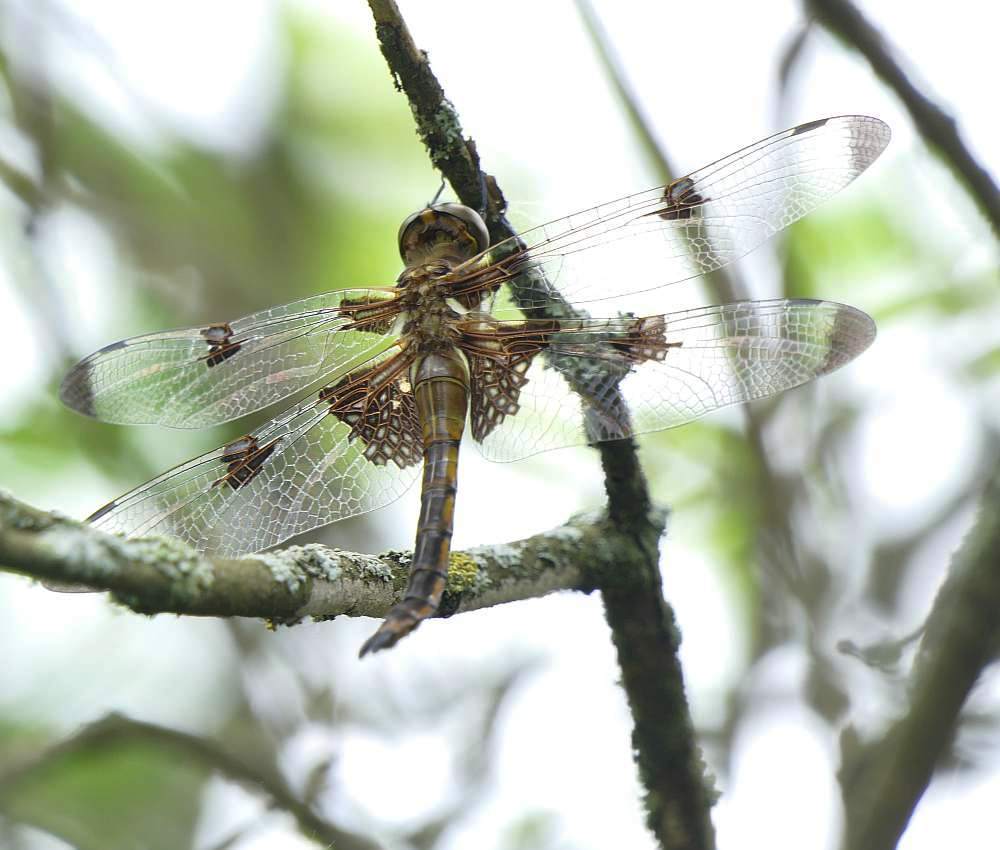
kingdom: Animalia
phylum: Arthropoda
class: Insecta
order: Odonata
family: Corduliidae
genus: Epitheca
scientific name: Epitheca princeps
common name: Prince baskettail
